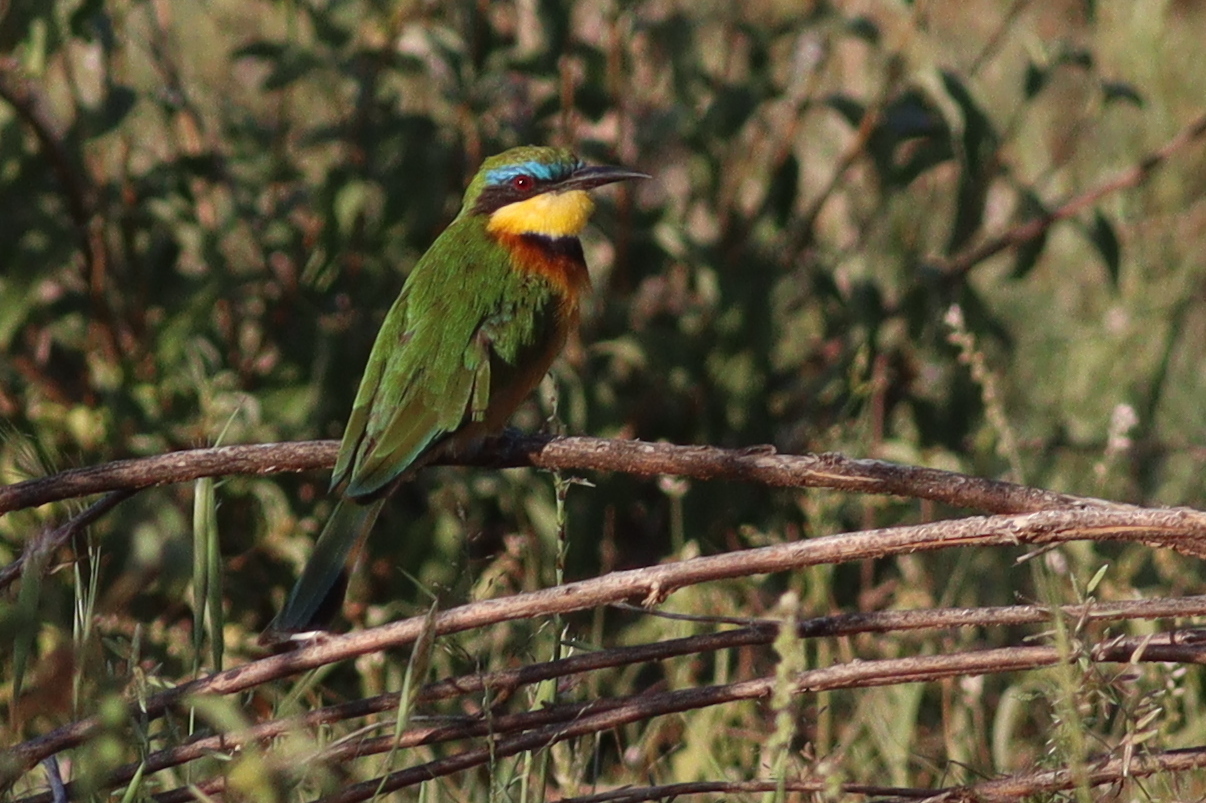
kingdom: Animalia
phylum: Chordata
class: Aves
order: Coraciiformes
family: Meropidae
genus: Merops
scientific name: Merops pusillus
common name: Little bee-eater
